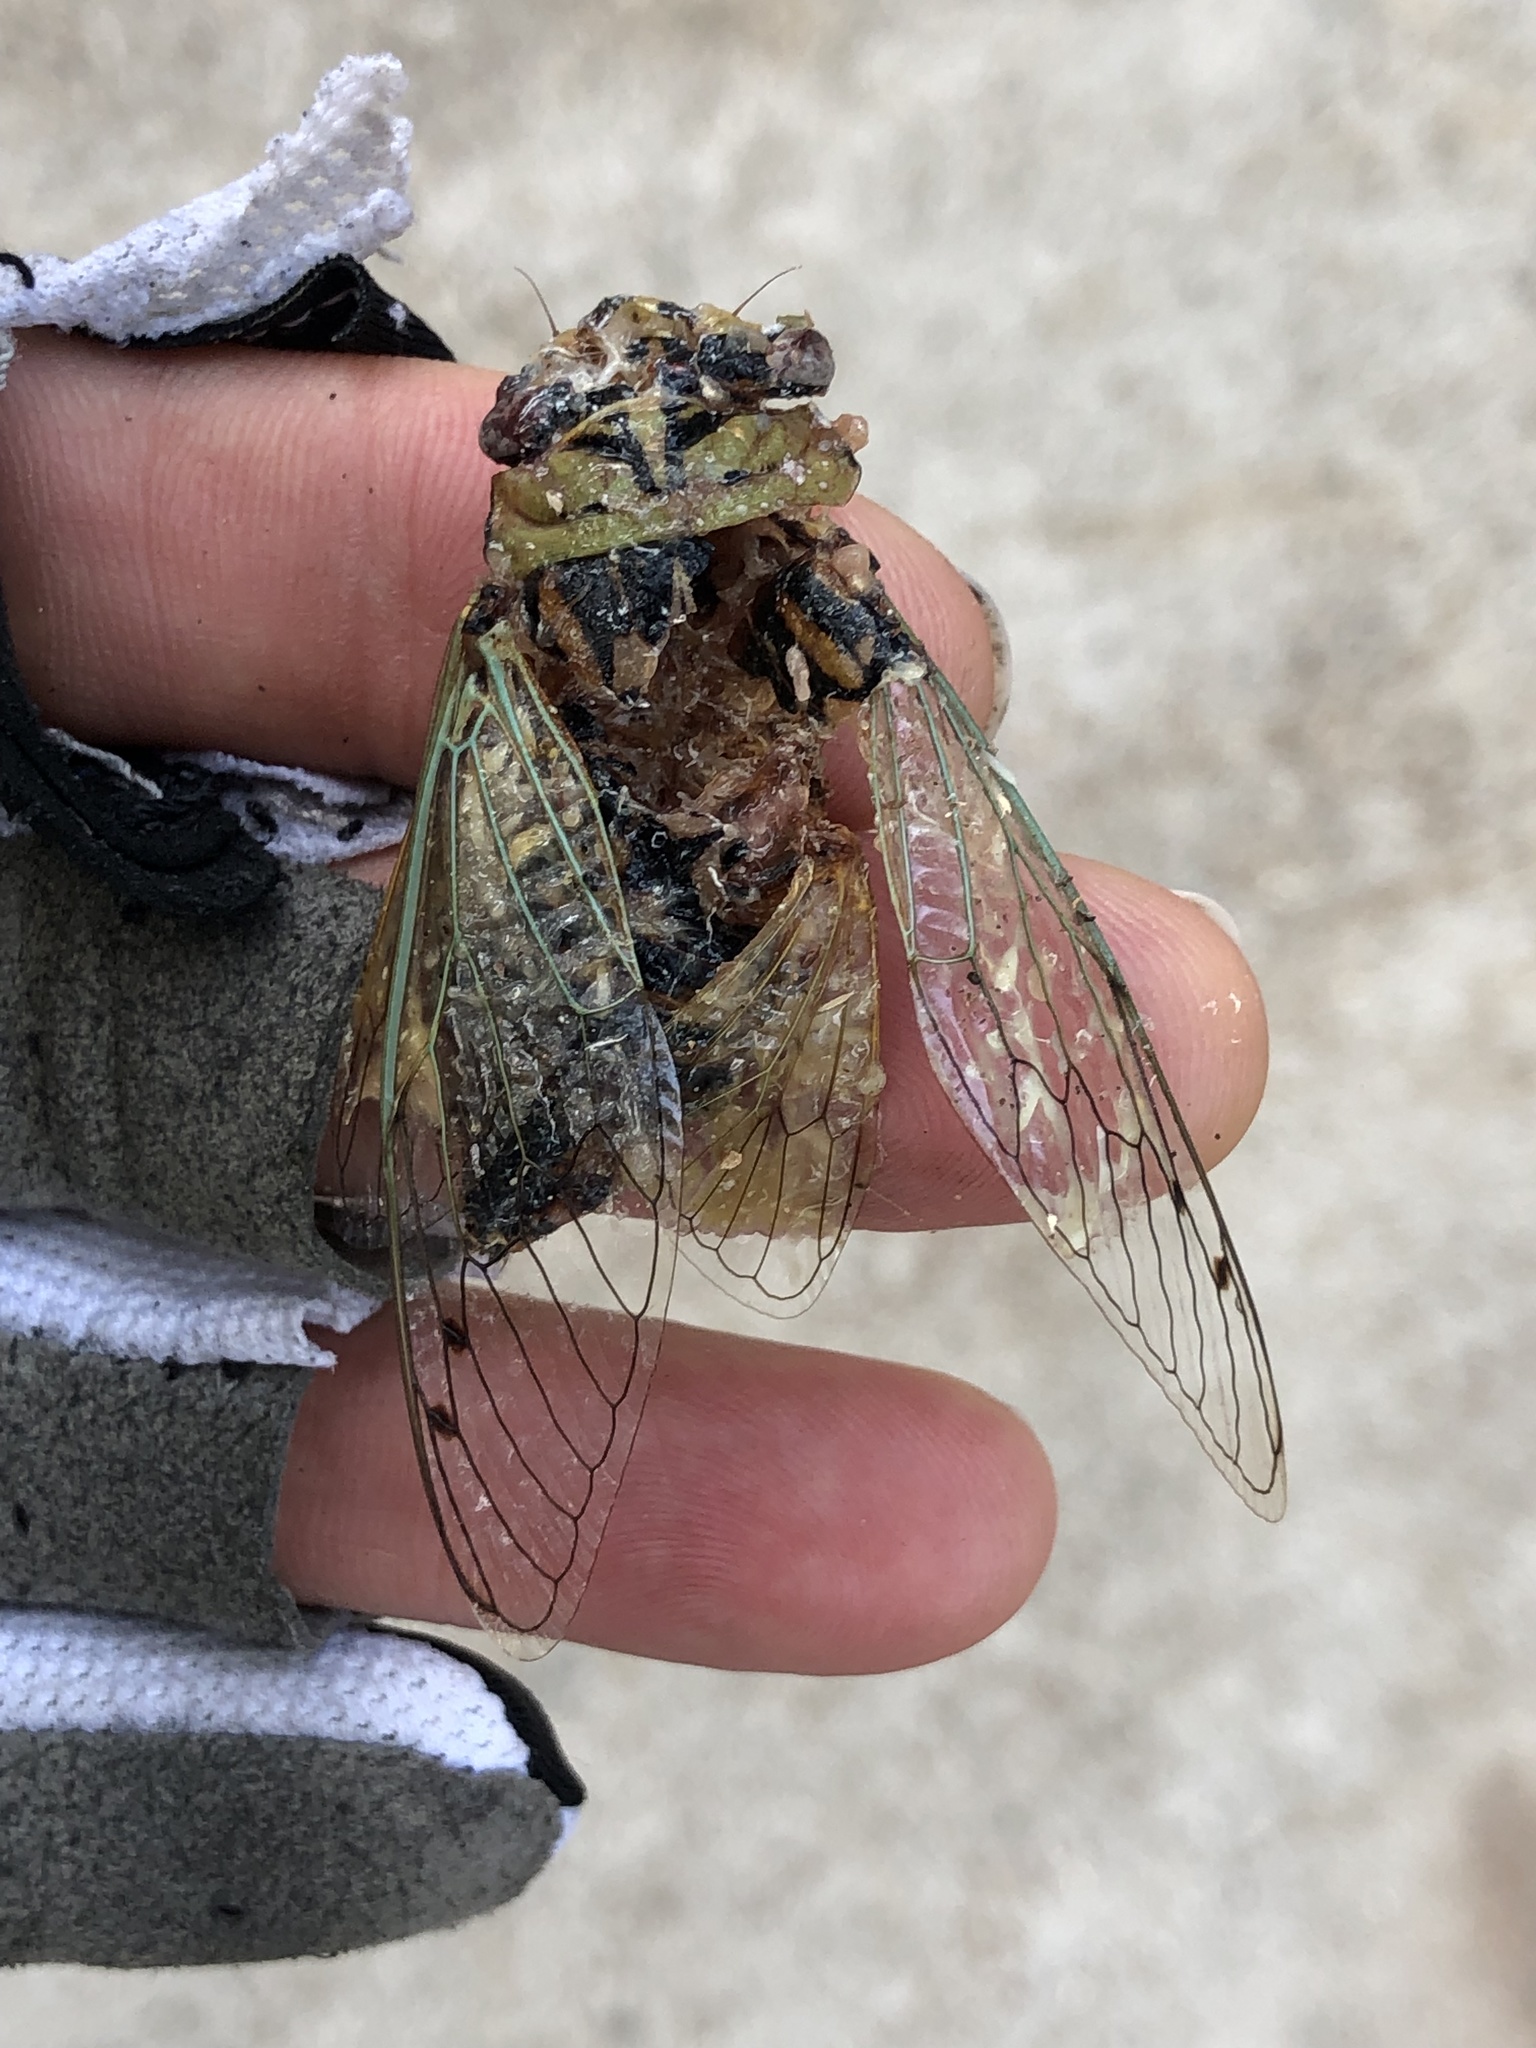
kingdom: Animalia
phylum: Arthropoda
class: Insecta
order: Hemiptera
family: Cicadidae
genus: Megatibicen
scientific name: Megatibicen resh
